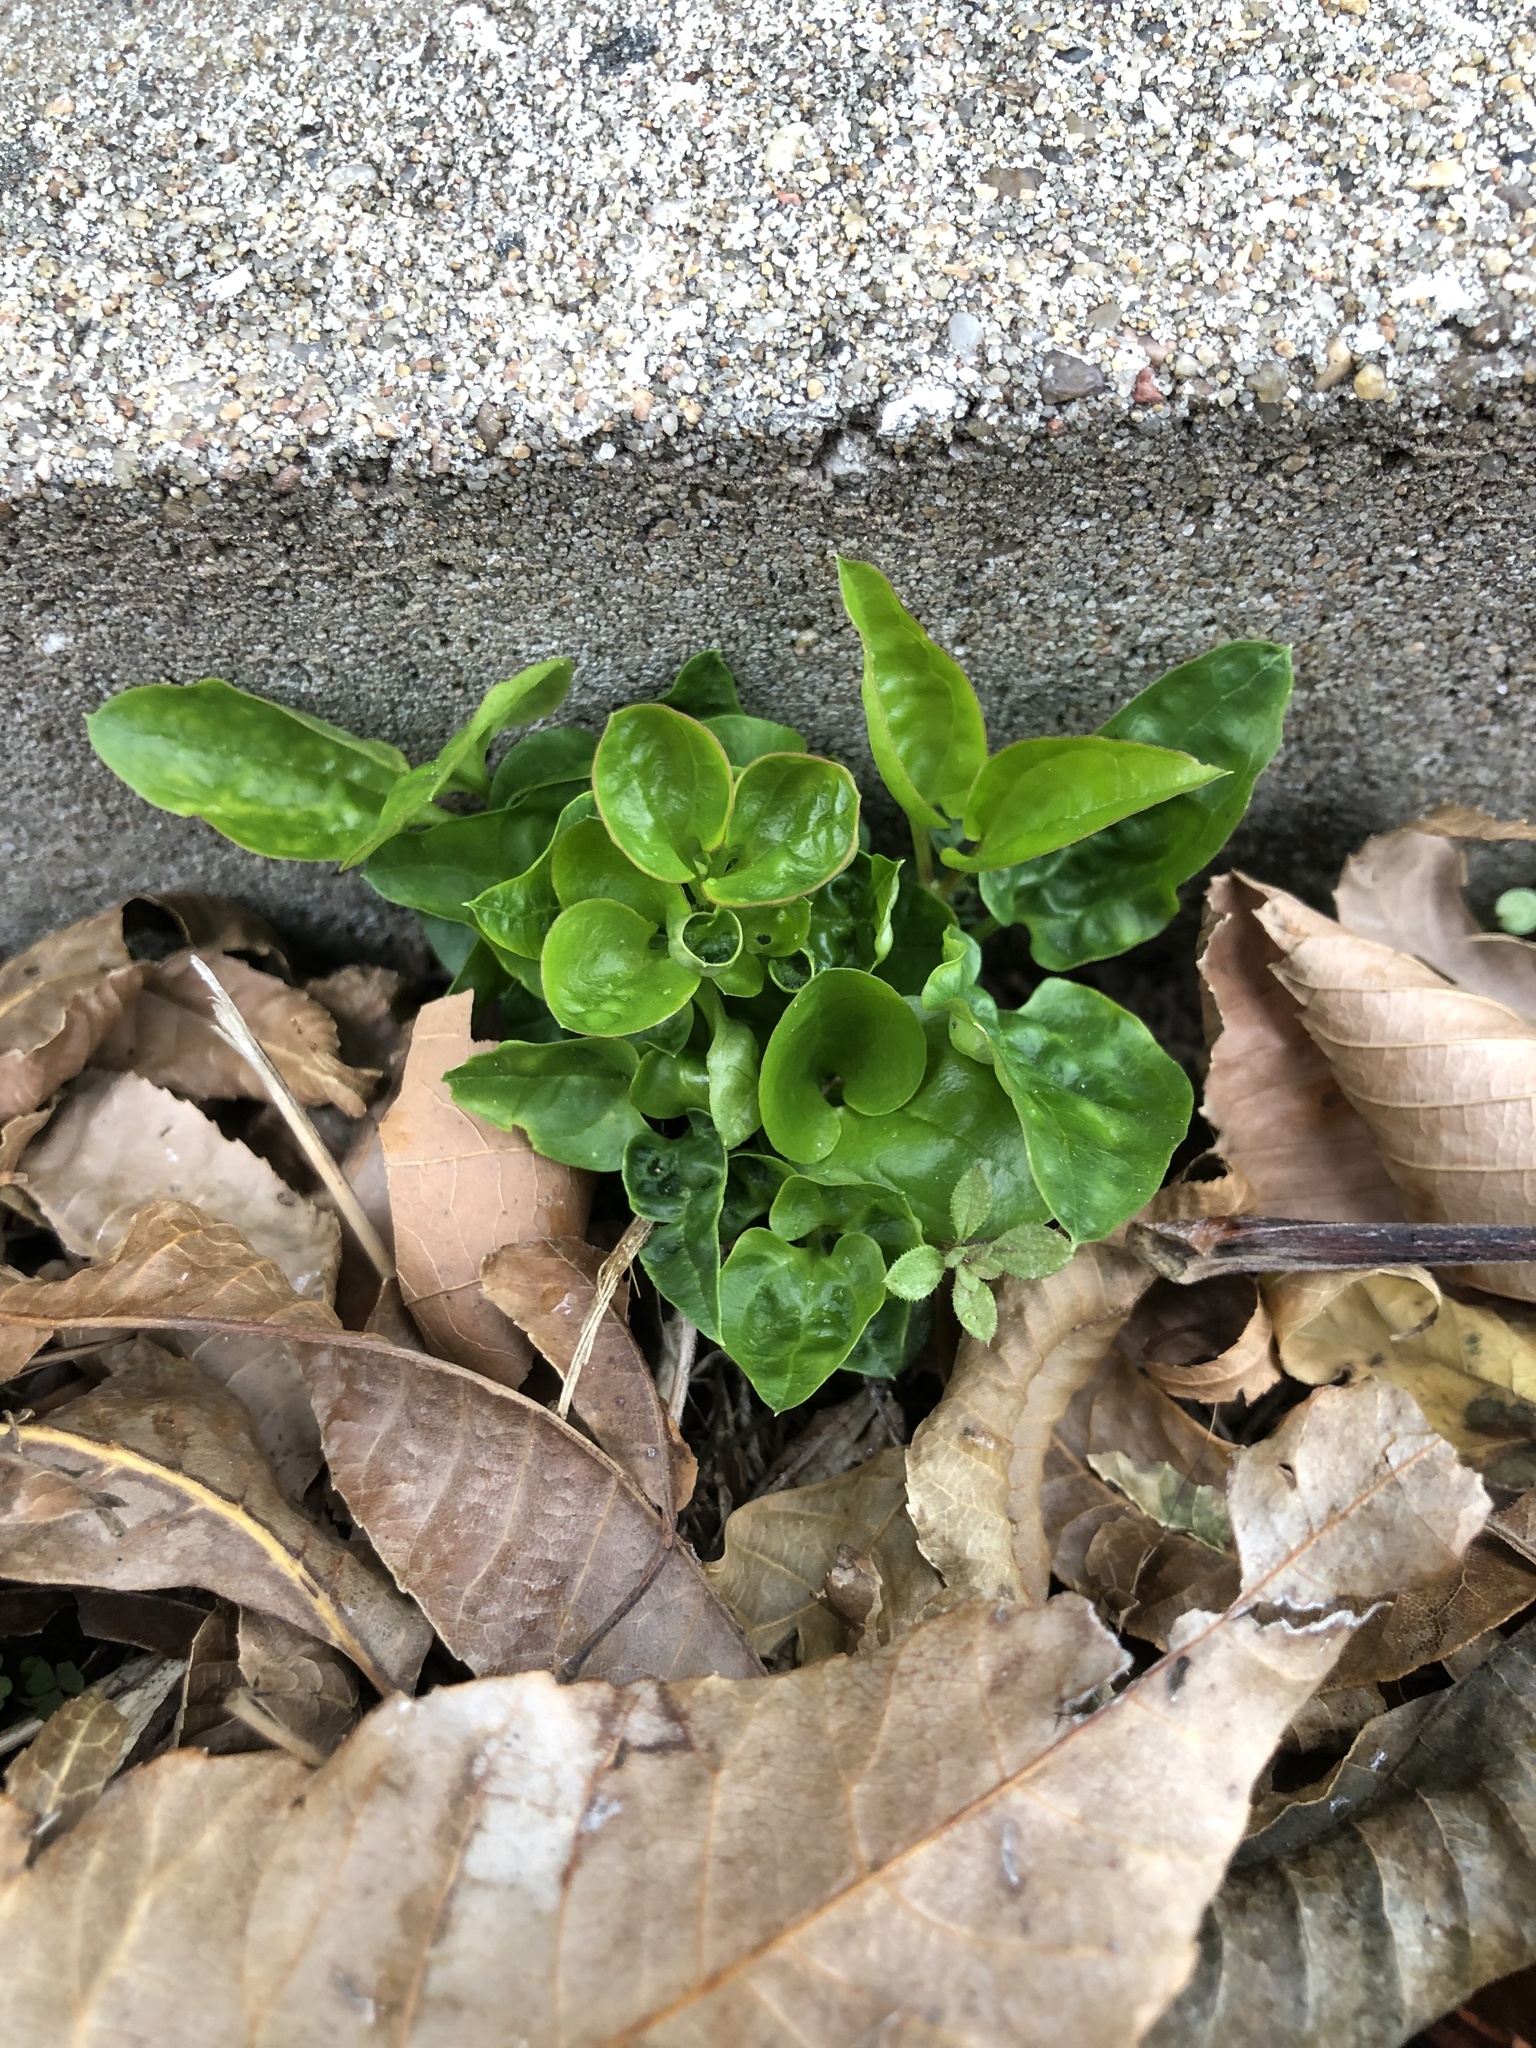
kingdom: Plantae
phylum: Tracheophyta
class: Magnoliopsida
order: Malpighiales
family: Violaceae
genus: Viola
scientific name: Viola sororia
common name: Dooryard violet
